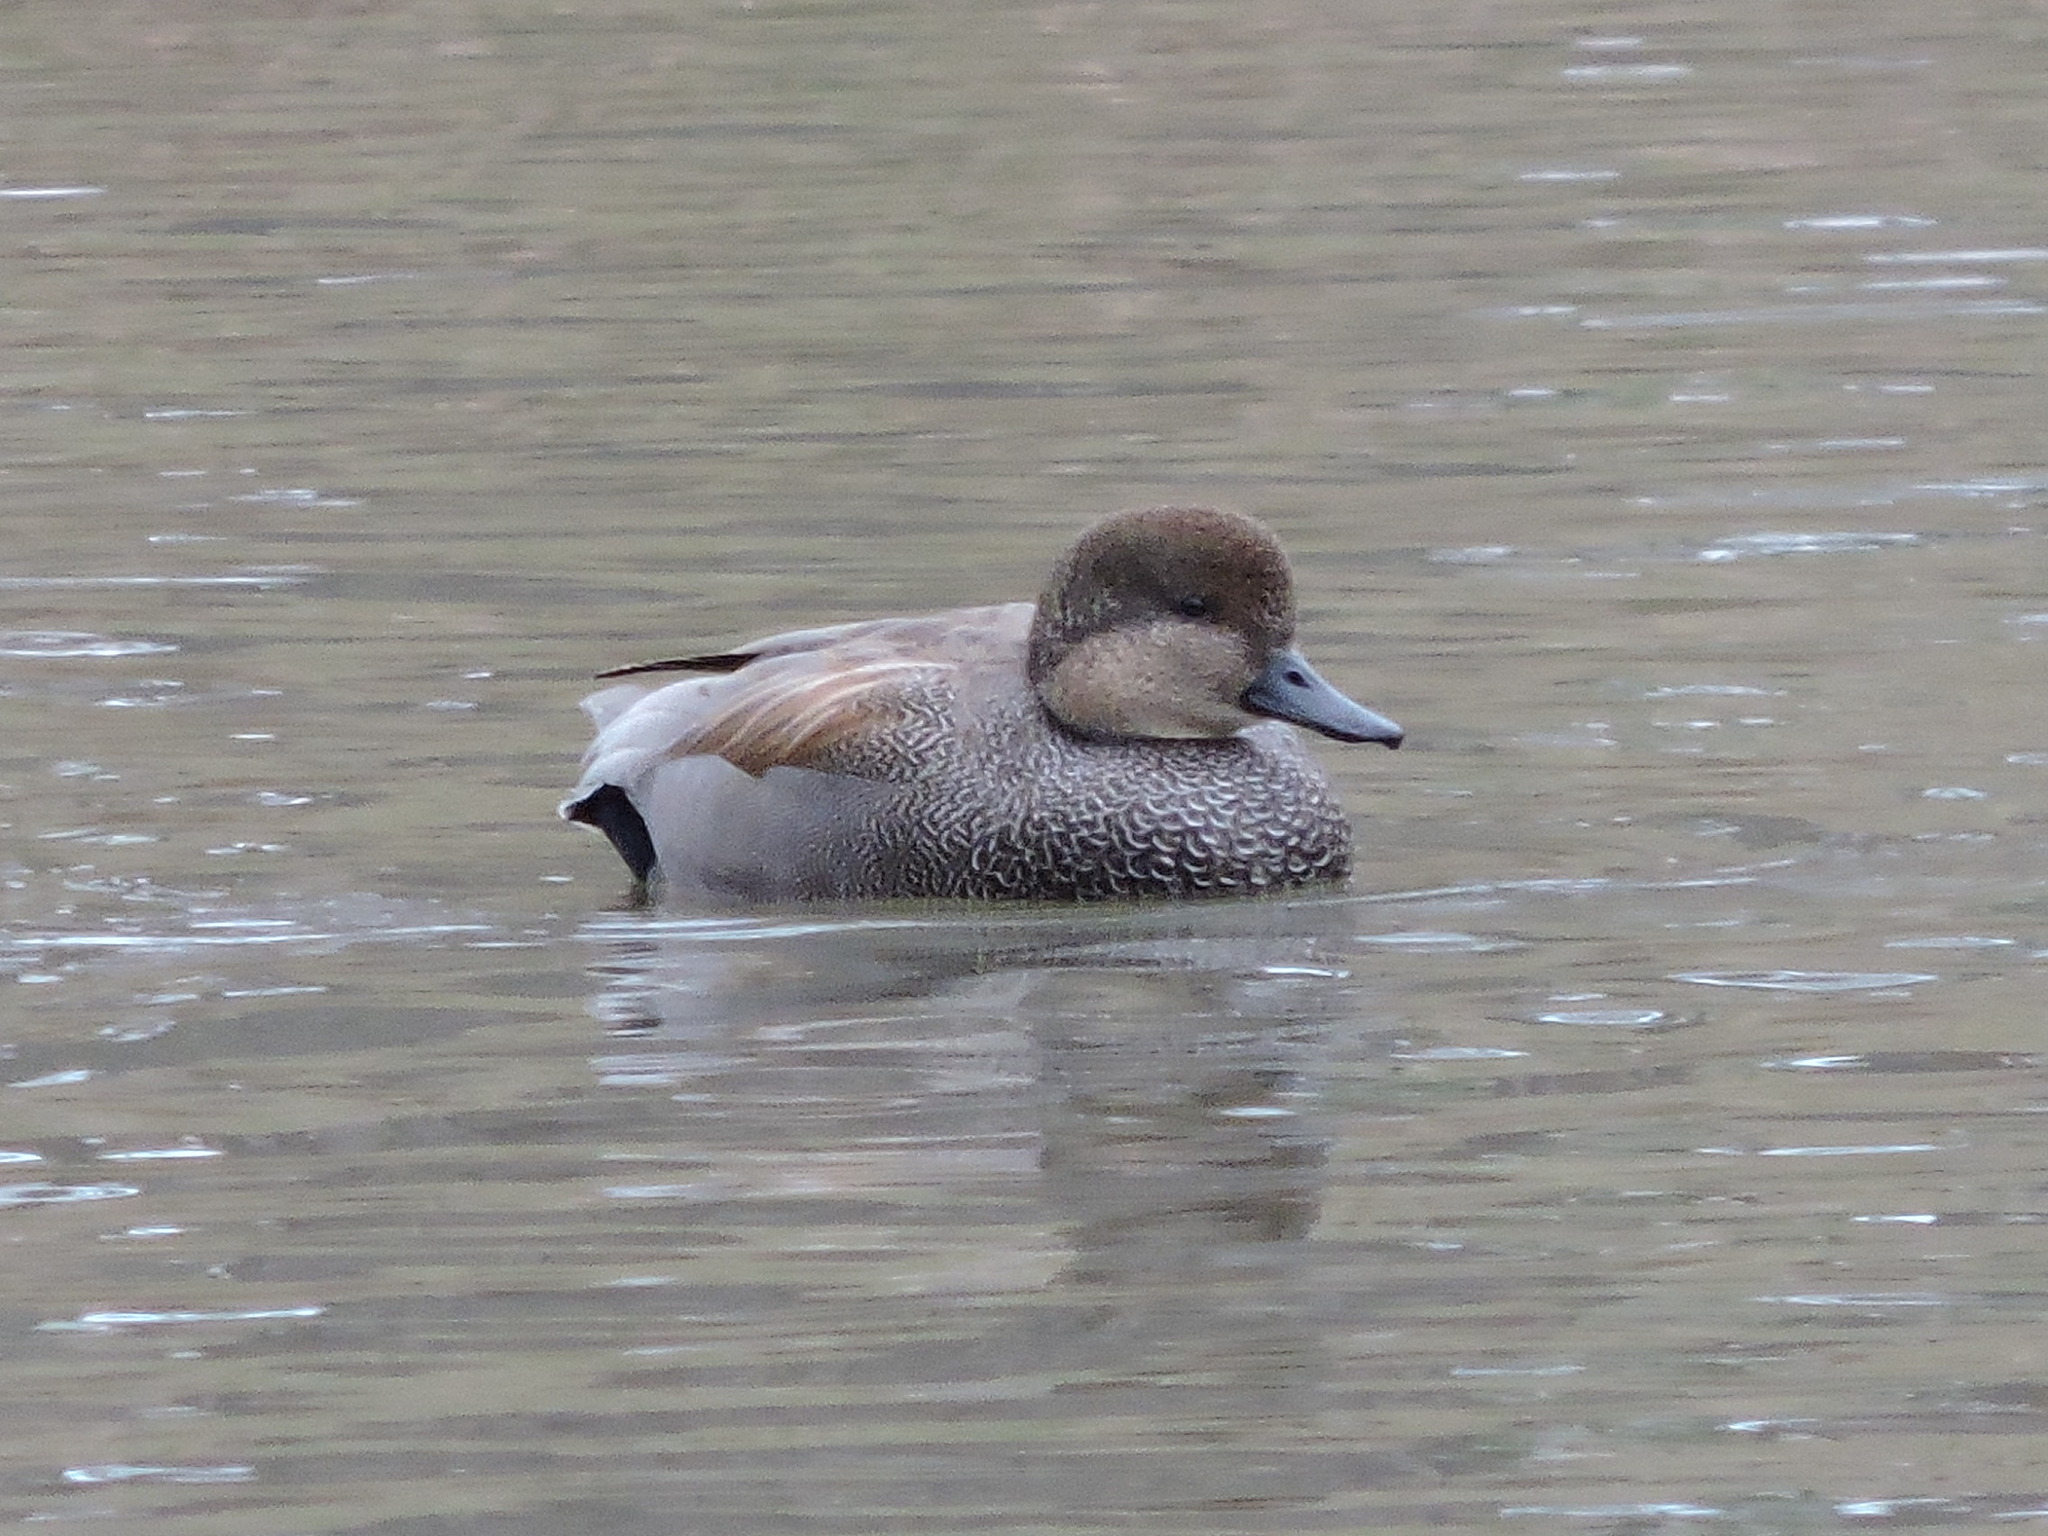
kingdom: Animalia
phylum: Chordata
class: Aves
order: Anseriformes
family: Anatidae
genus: Mareca
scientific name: Mareca strepera
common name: Gadwall
